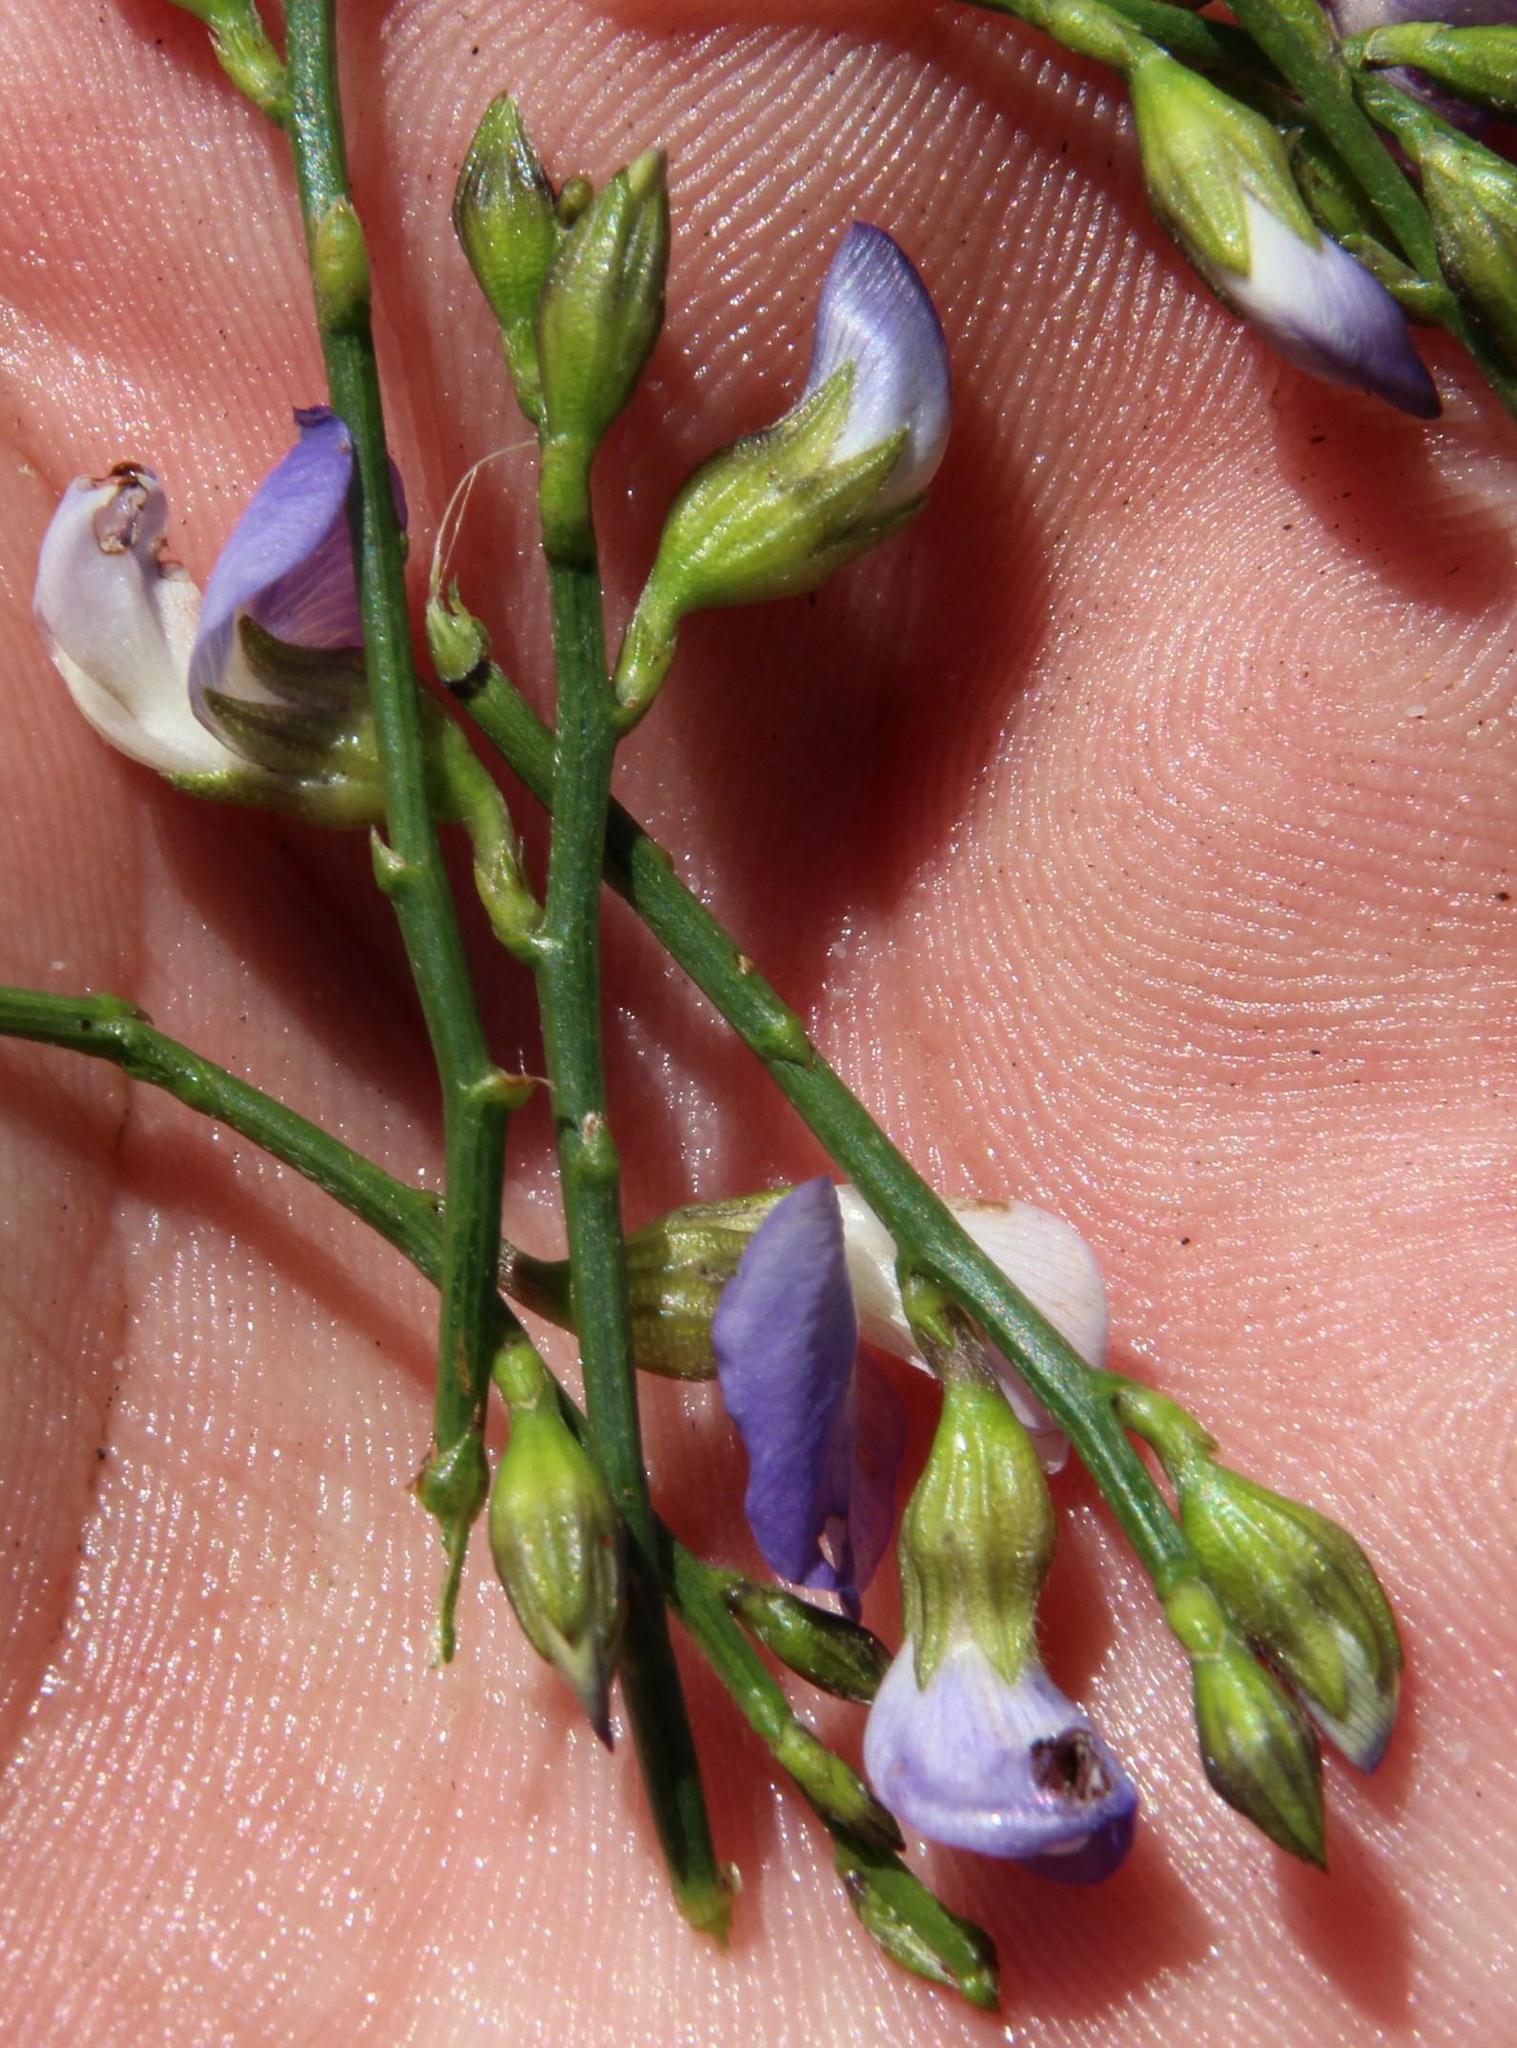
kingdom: Plantae
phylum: Tracheophyta
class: Magnoliopsida
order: Fabales
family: Fabaceae
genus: Psoralea
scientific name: Psoralea usitata
